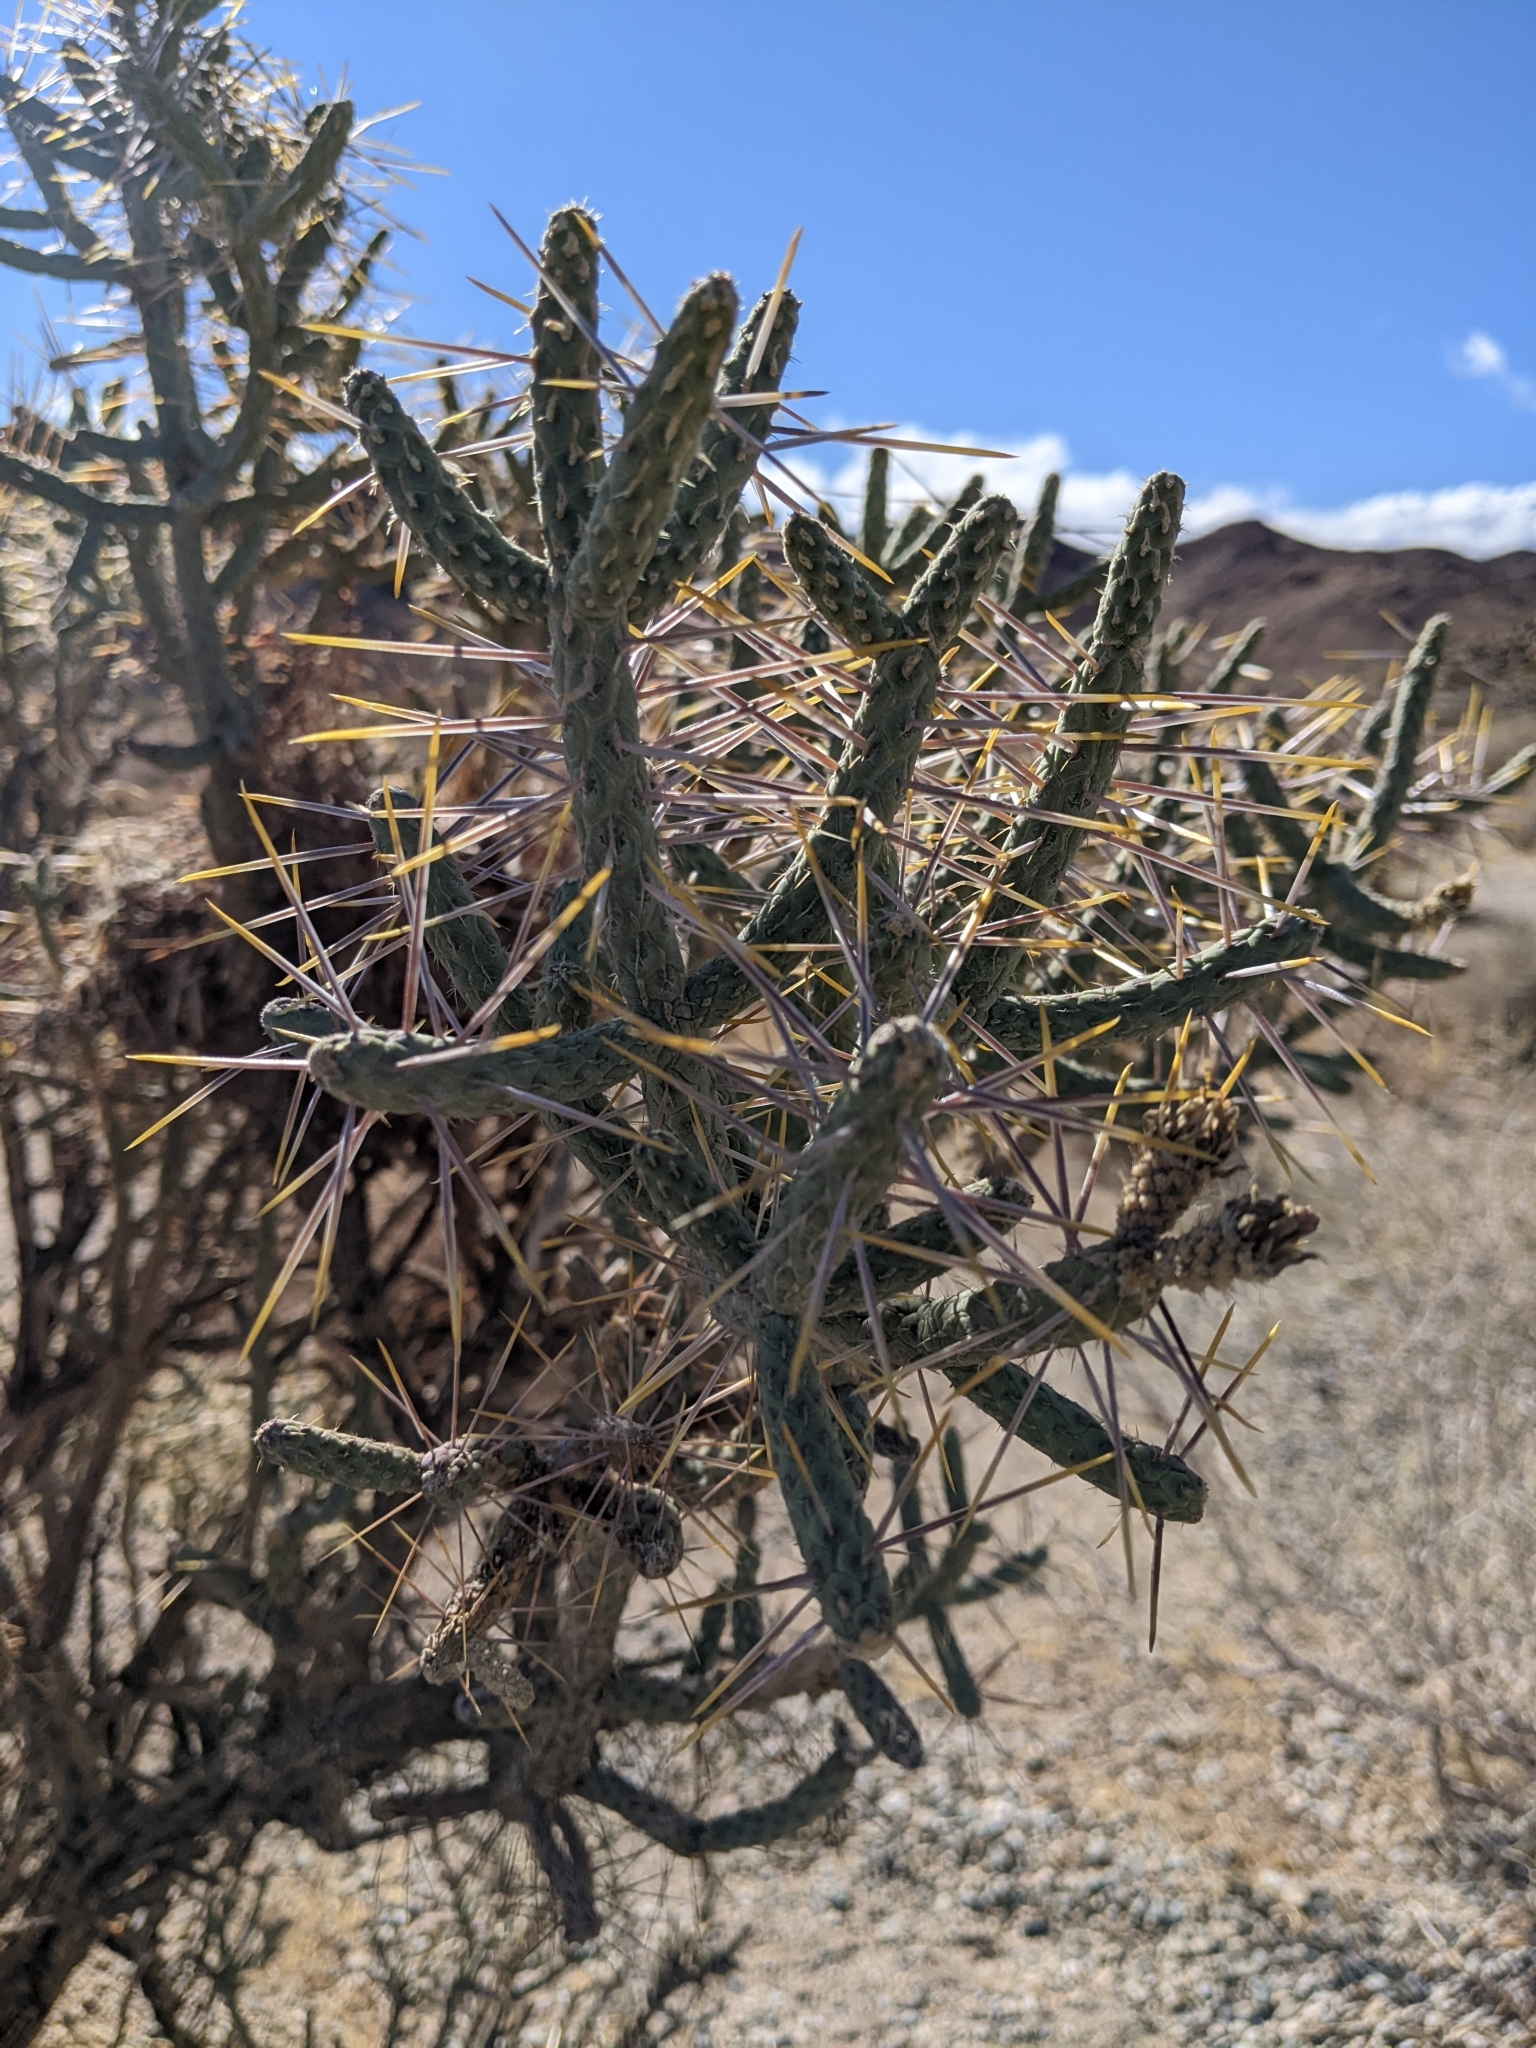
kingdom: Plantae
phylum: Tracheophyta
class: Magnoliopsida
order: Caryophyllales
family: Cactaceae
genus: Cylindropuntia
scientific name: Cylindropuntia ramosissima
